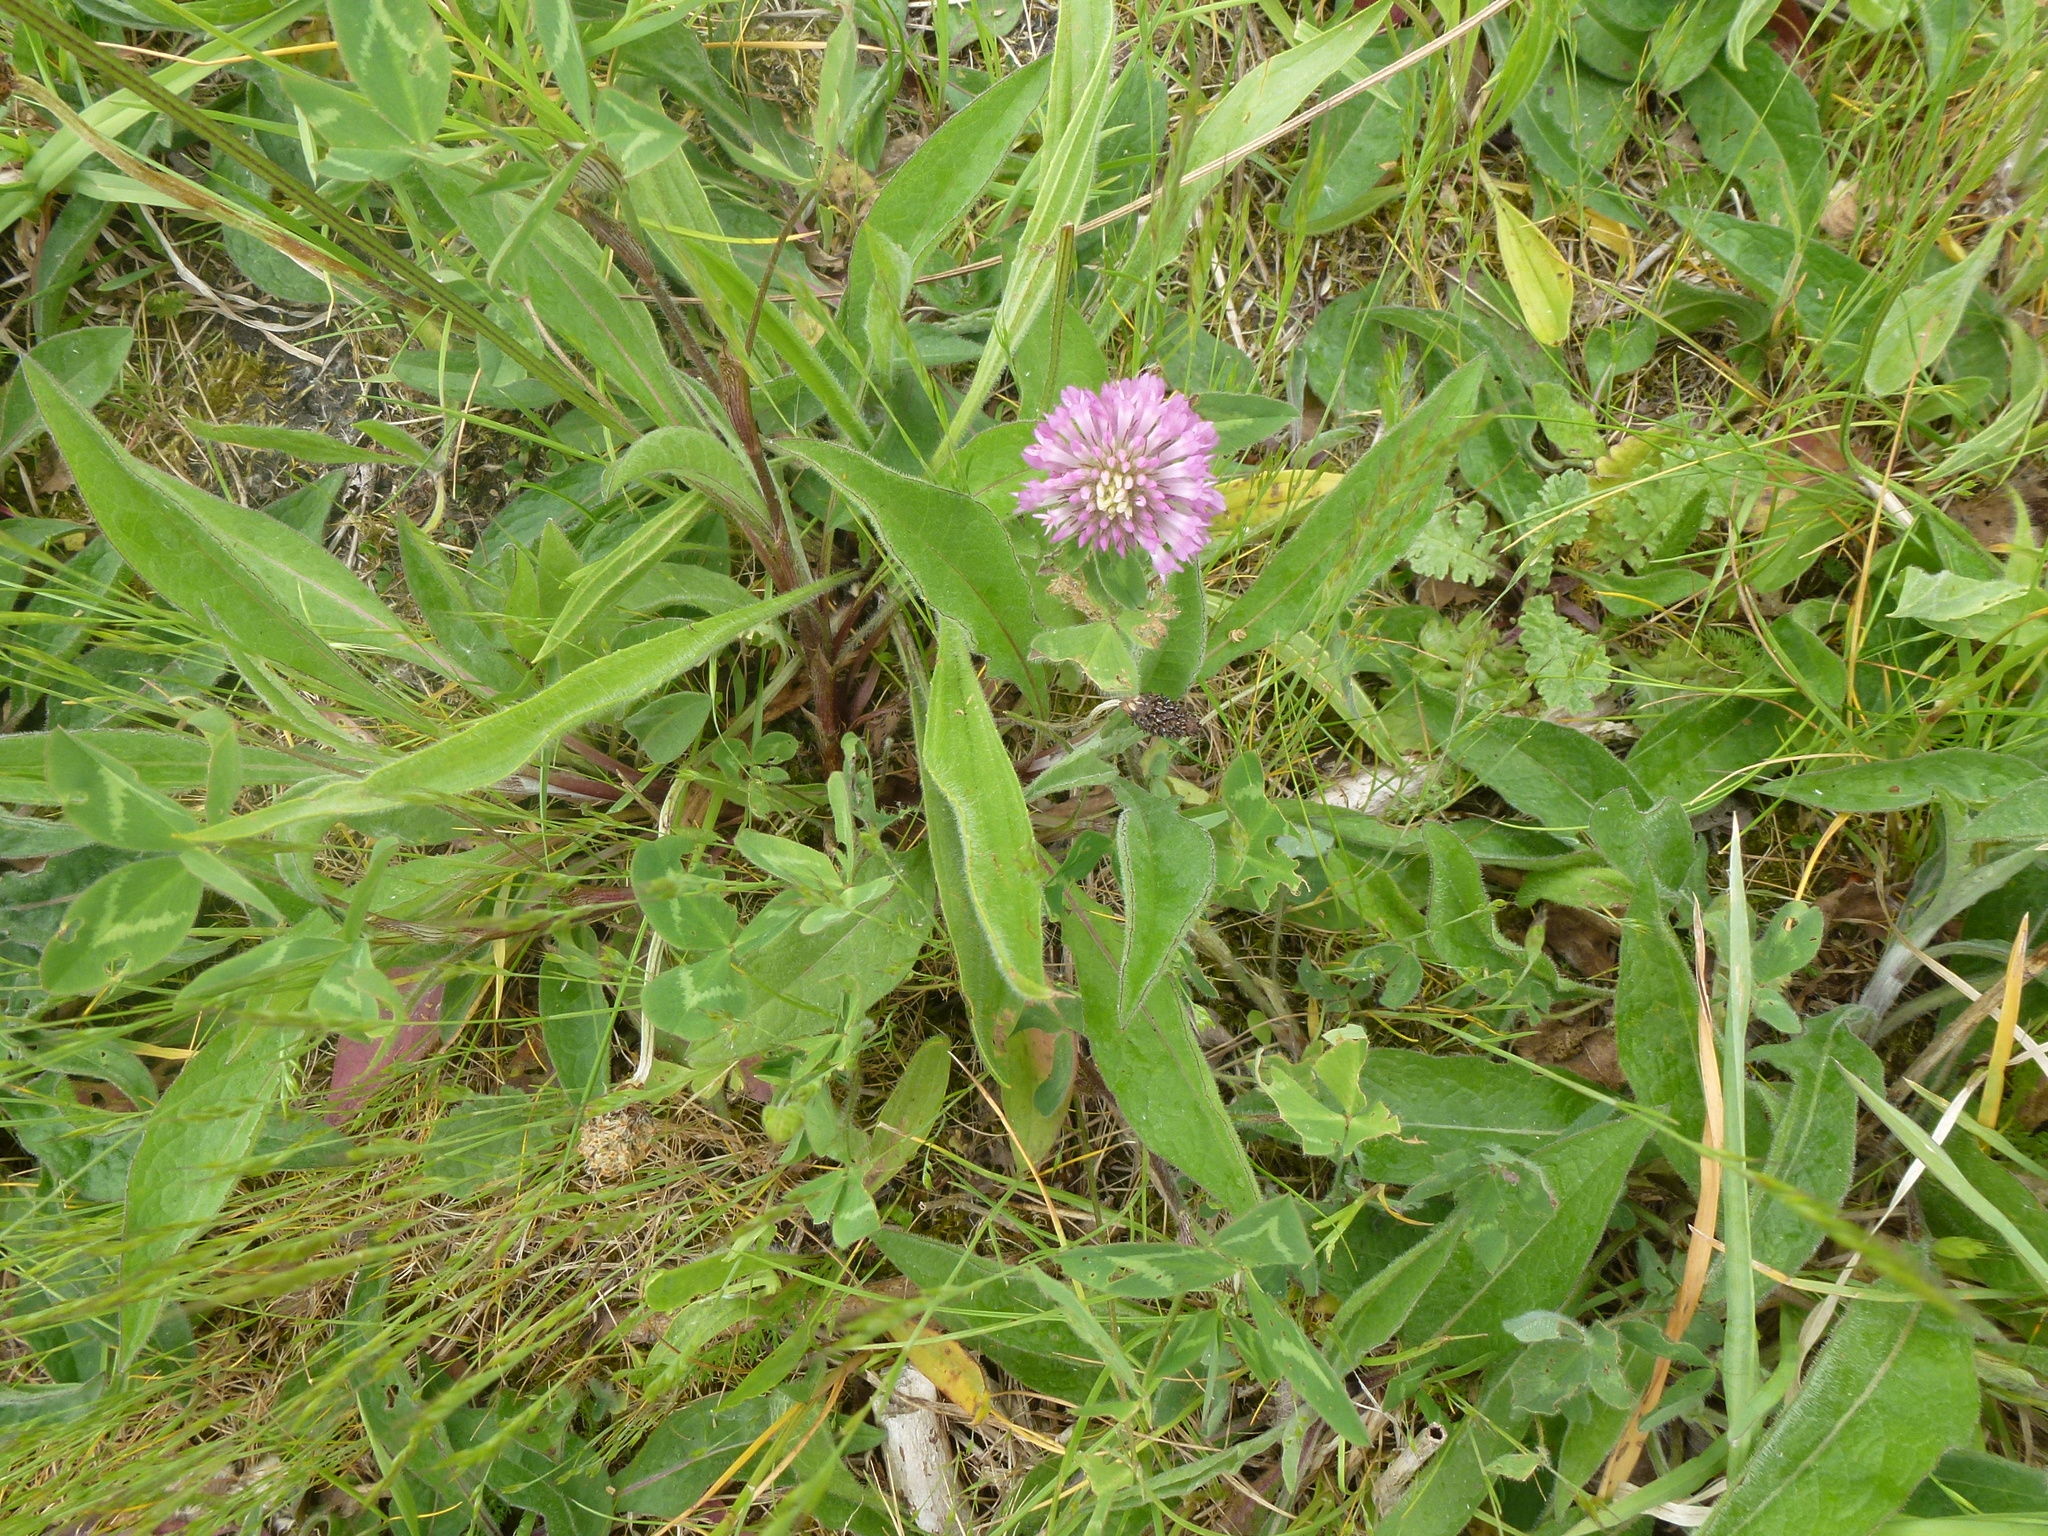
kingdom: Plantae
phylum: Tracheophyta
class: Magnoliopsida
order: Fabales
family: Fabaceae
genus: Trifolium
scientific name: Trifolium pratense
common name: Red clover
